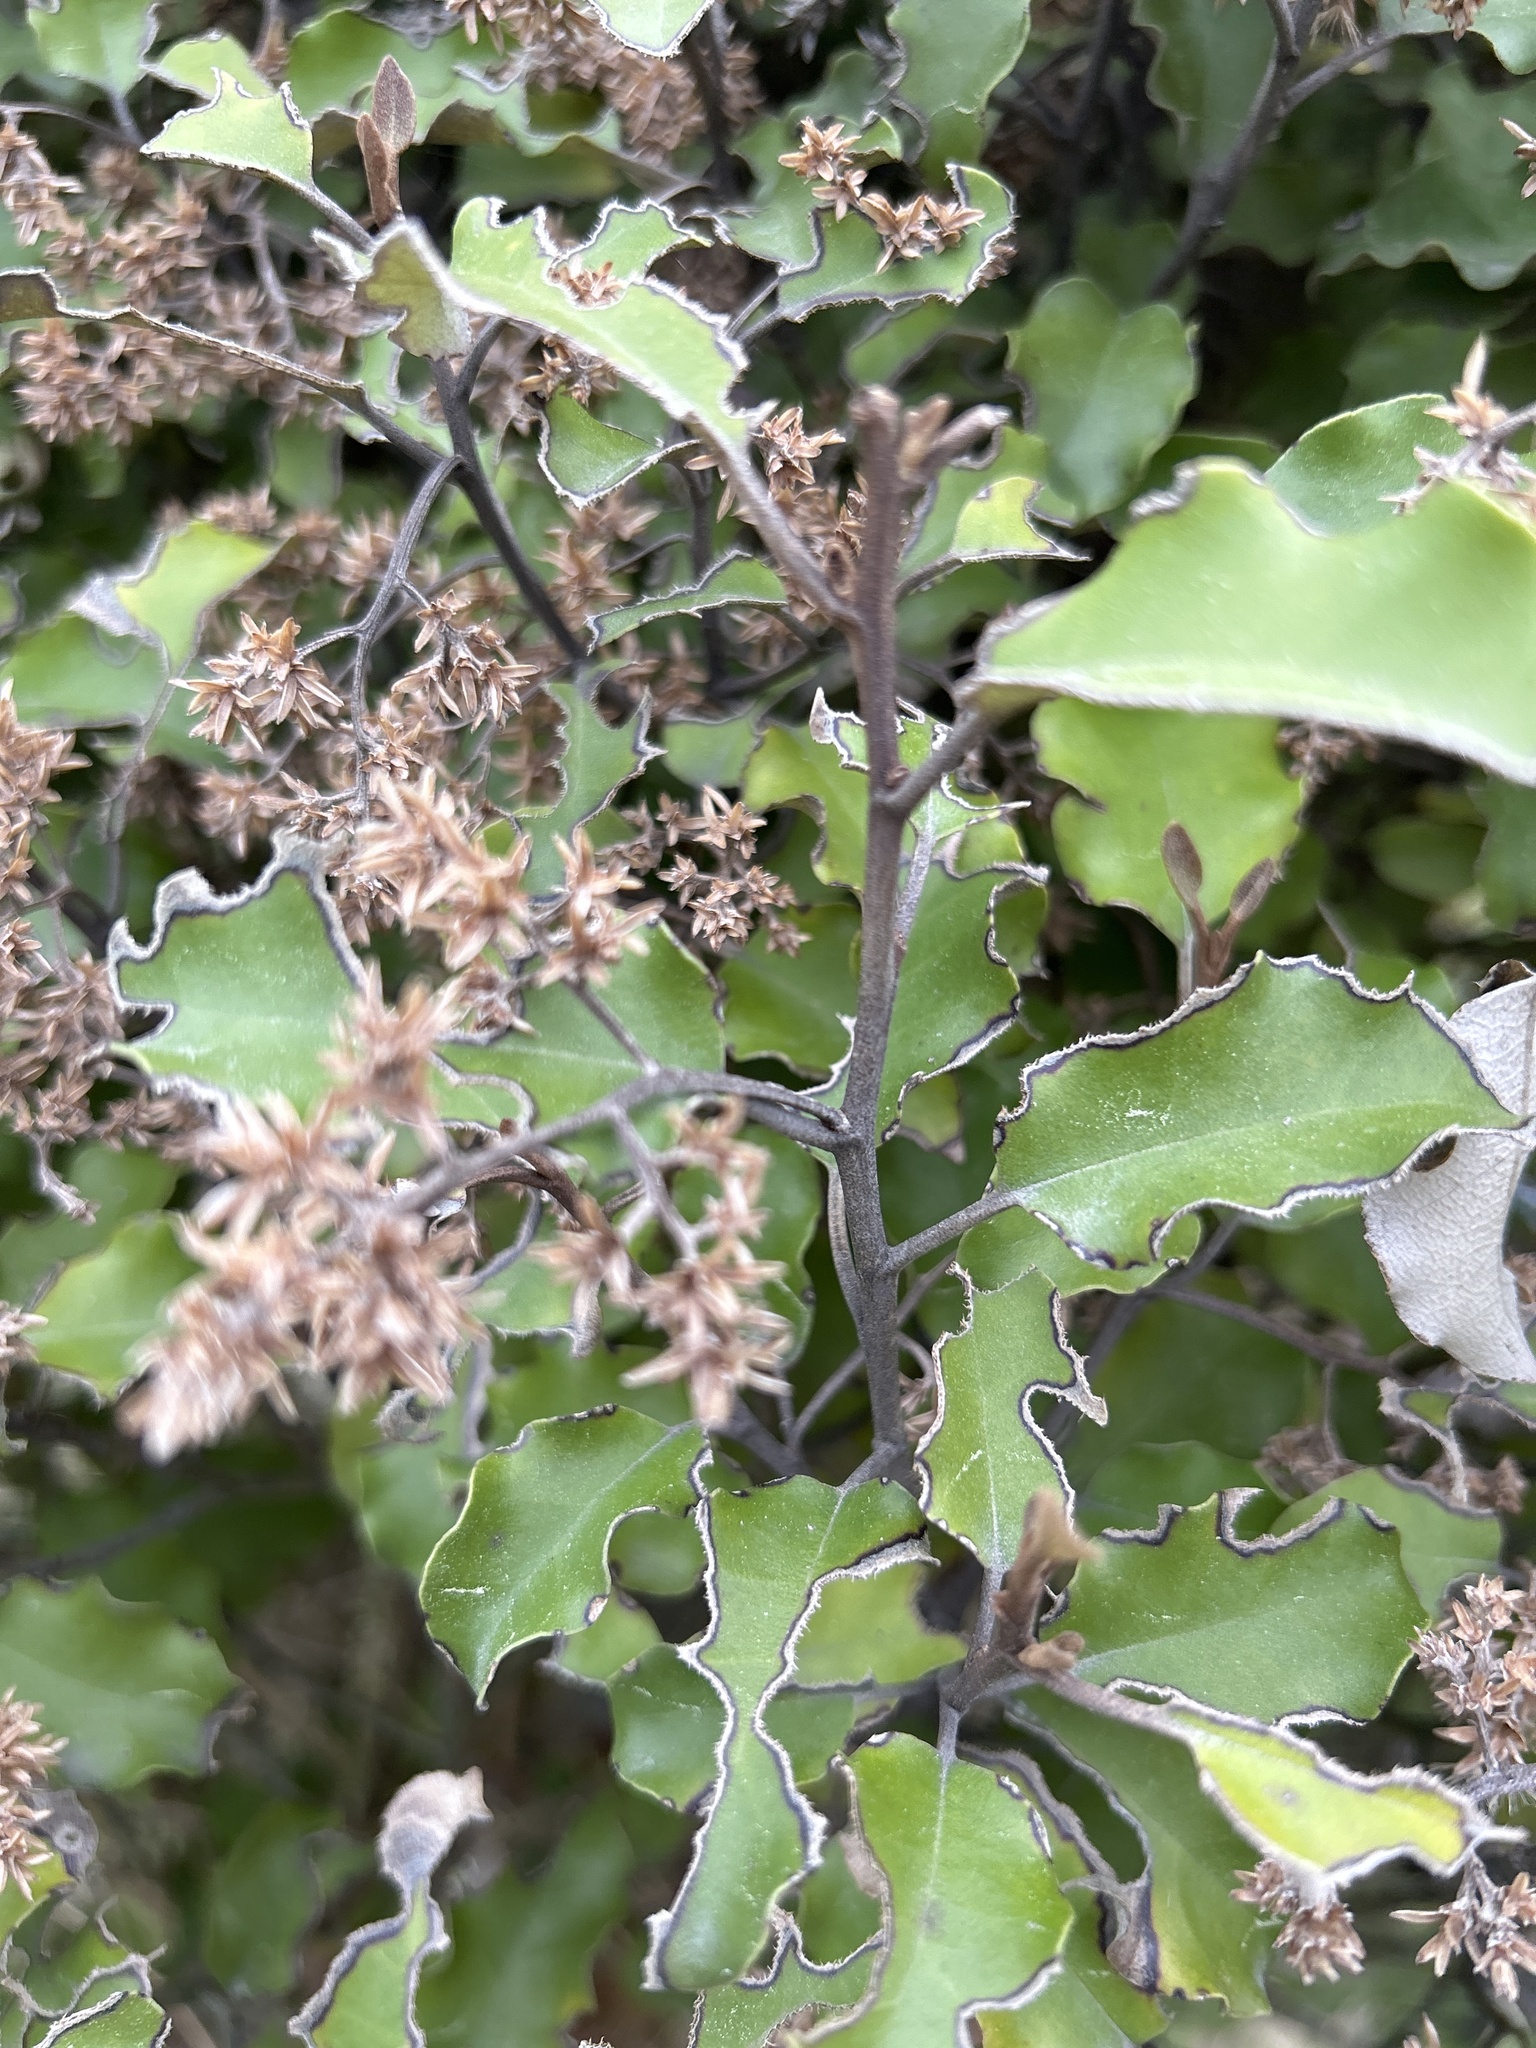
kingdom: Plantae
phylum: Tracheophyta
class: Magnoliopsida
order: Asterales
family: Asteraceae
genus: Olearia
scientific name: Olearia paniculata
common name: Akiraho
